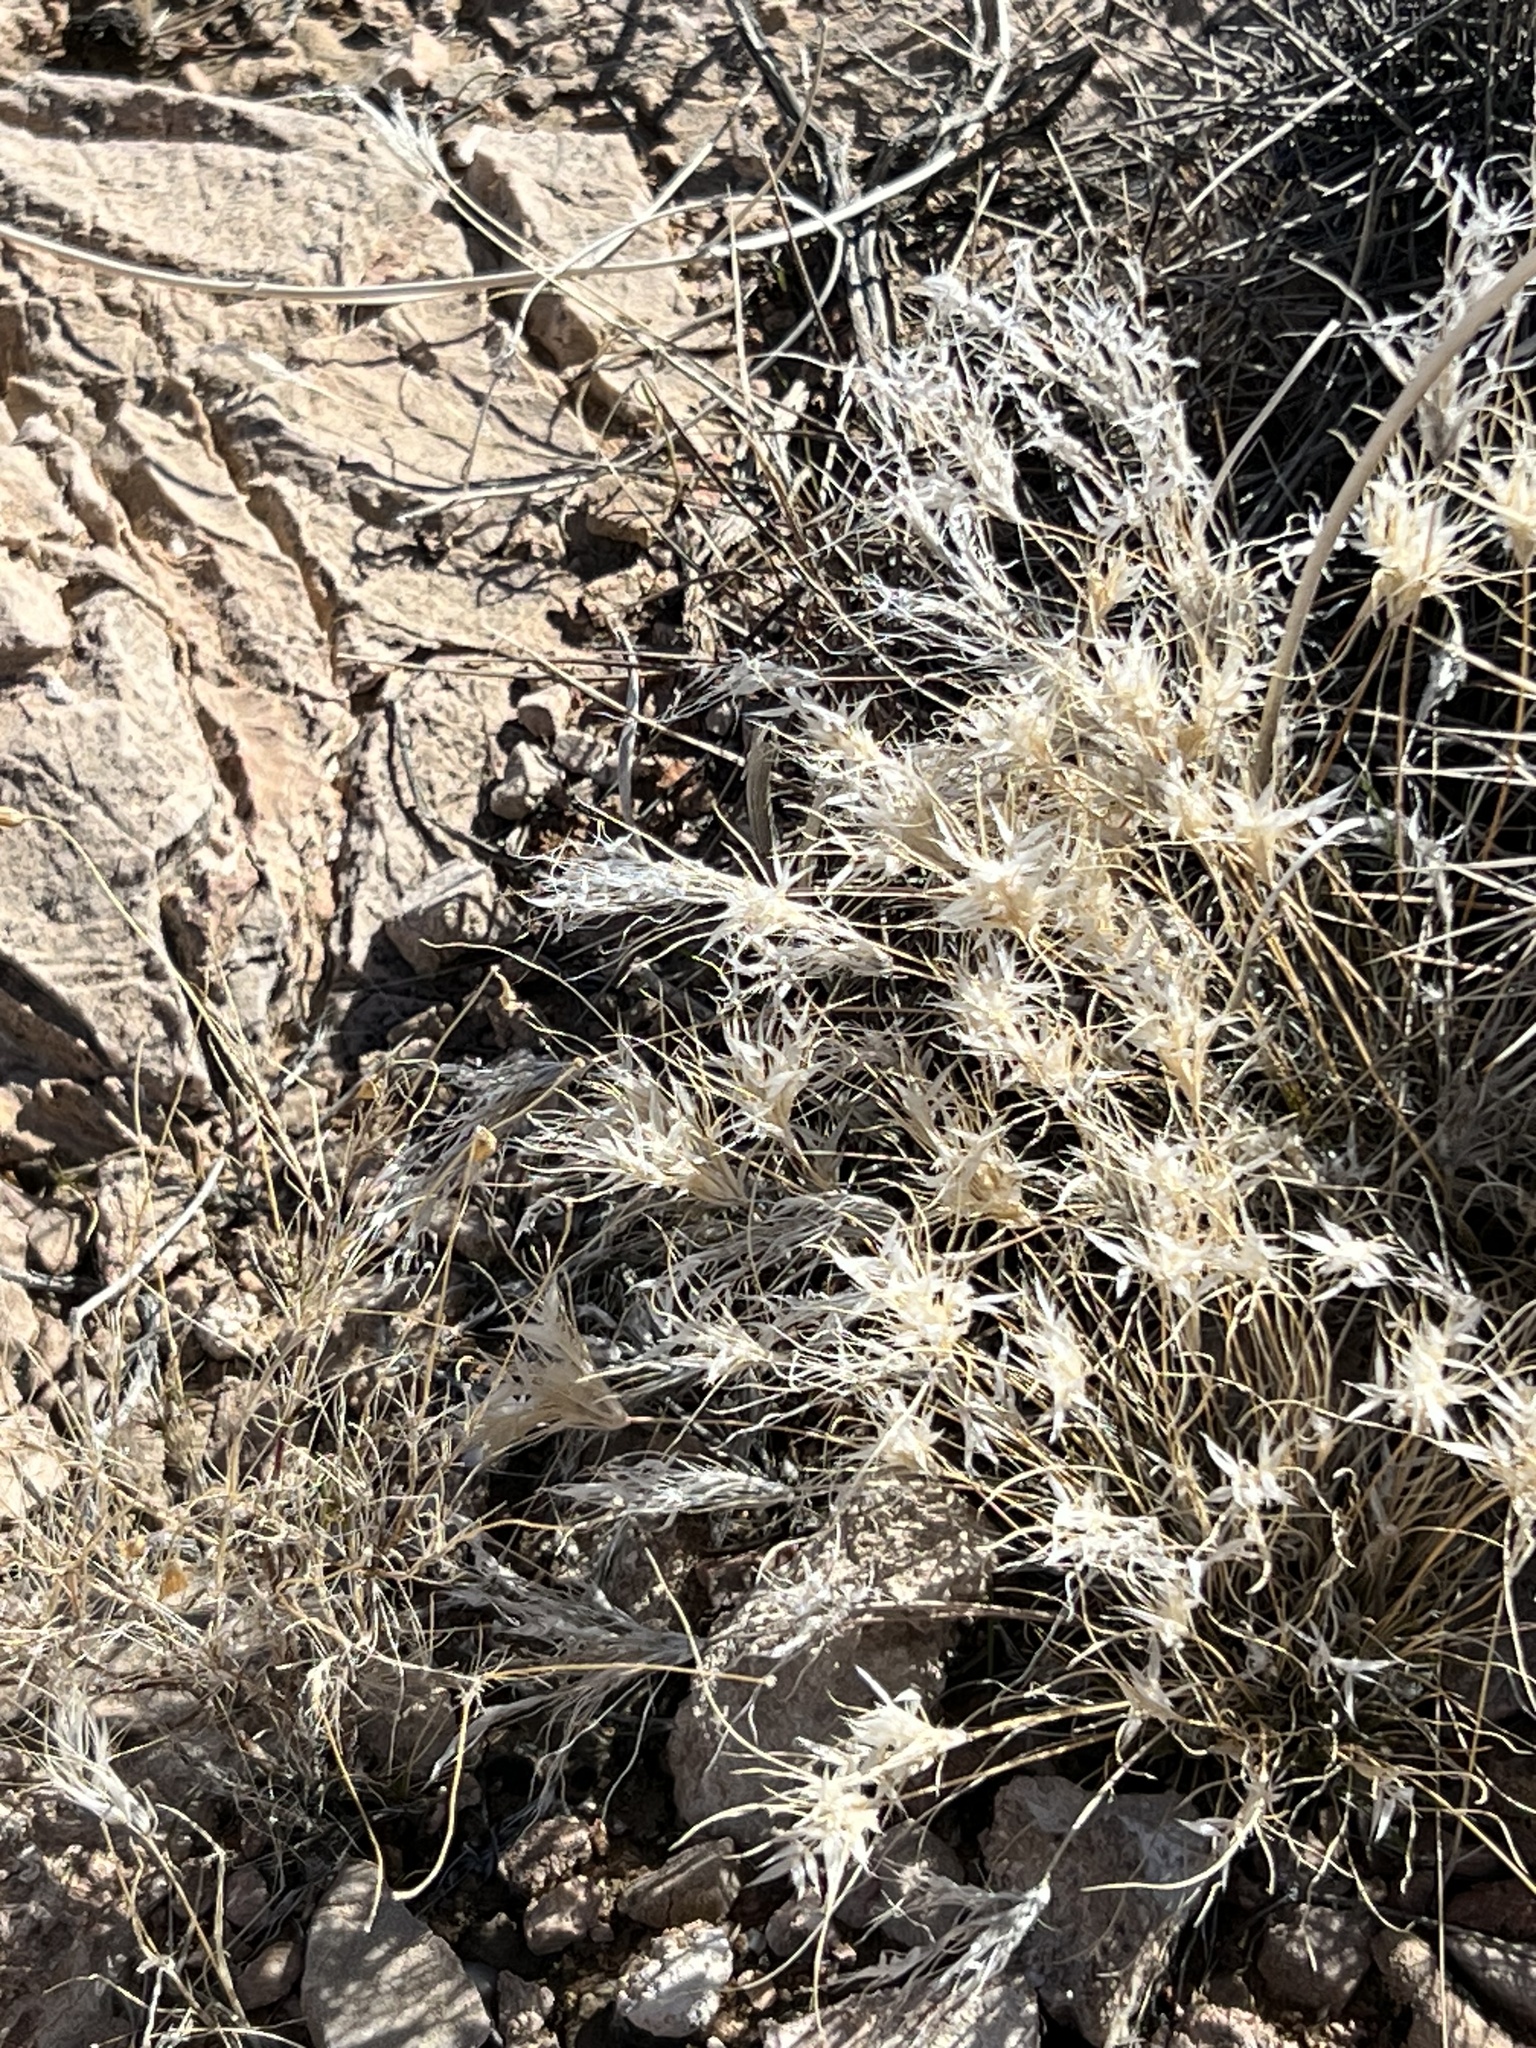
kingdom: Plantae
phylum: Tracheophyta
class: Liliopsida
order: Poales
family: Poaceae
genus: Dasyochloa
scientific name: Dasyochloa pulchella
